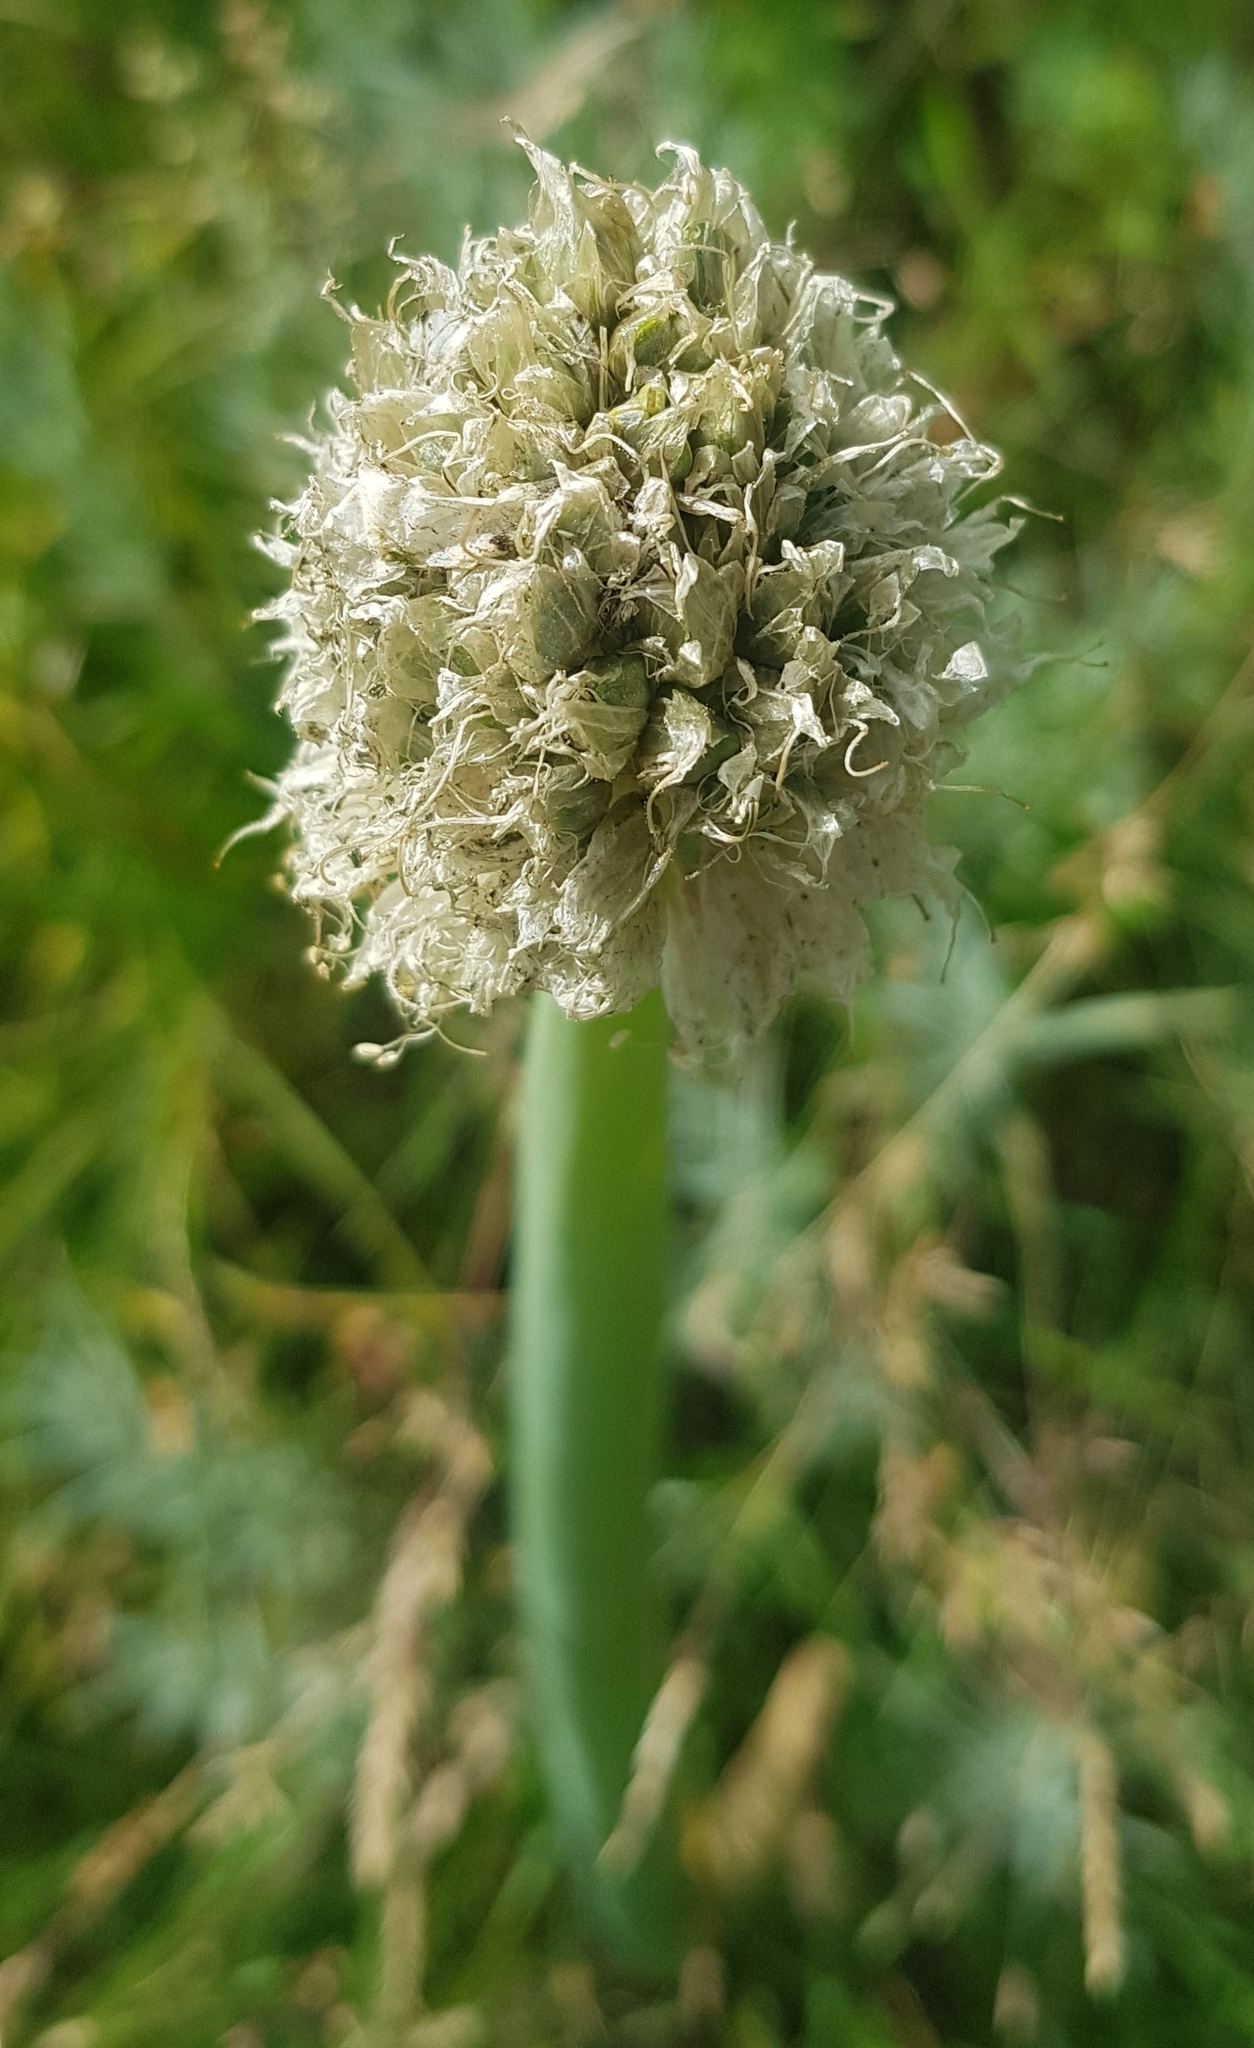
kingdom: Plantae
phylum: Tracheophyta
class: Liliopsida
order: Asparagales
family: Amaryllidaceae
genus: Allium
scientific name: Allium altaicum
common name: Altai onion
